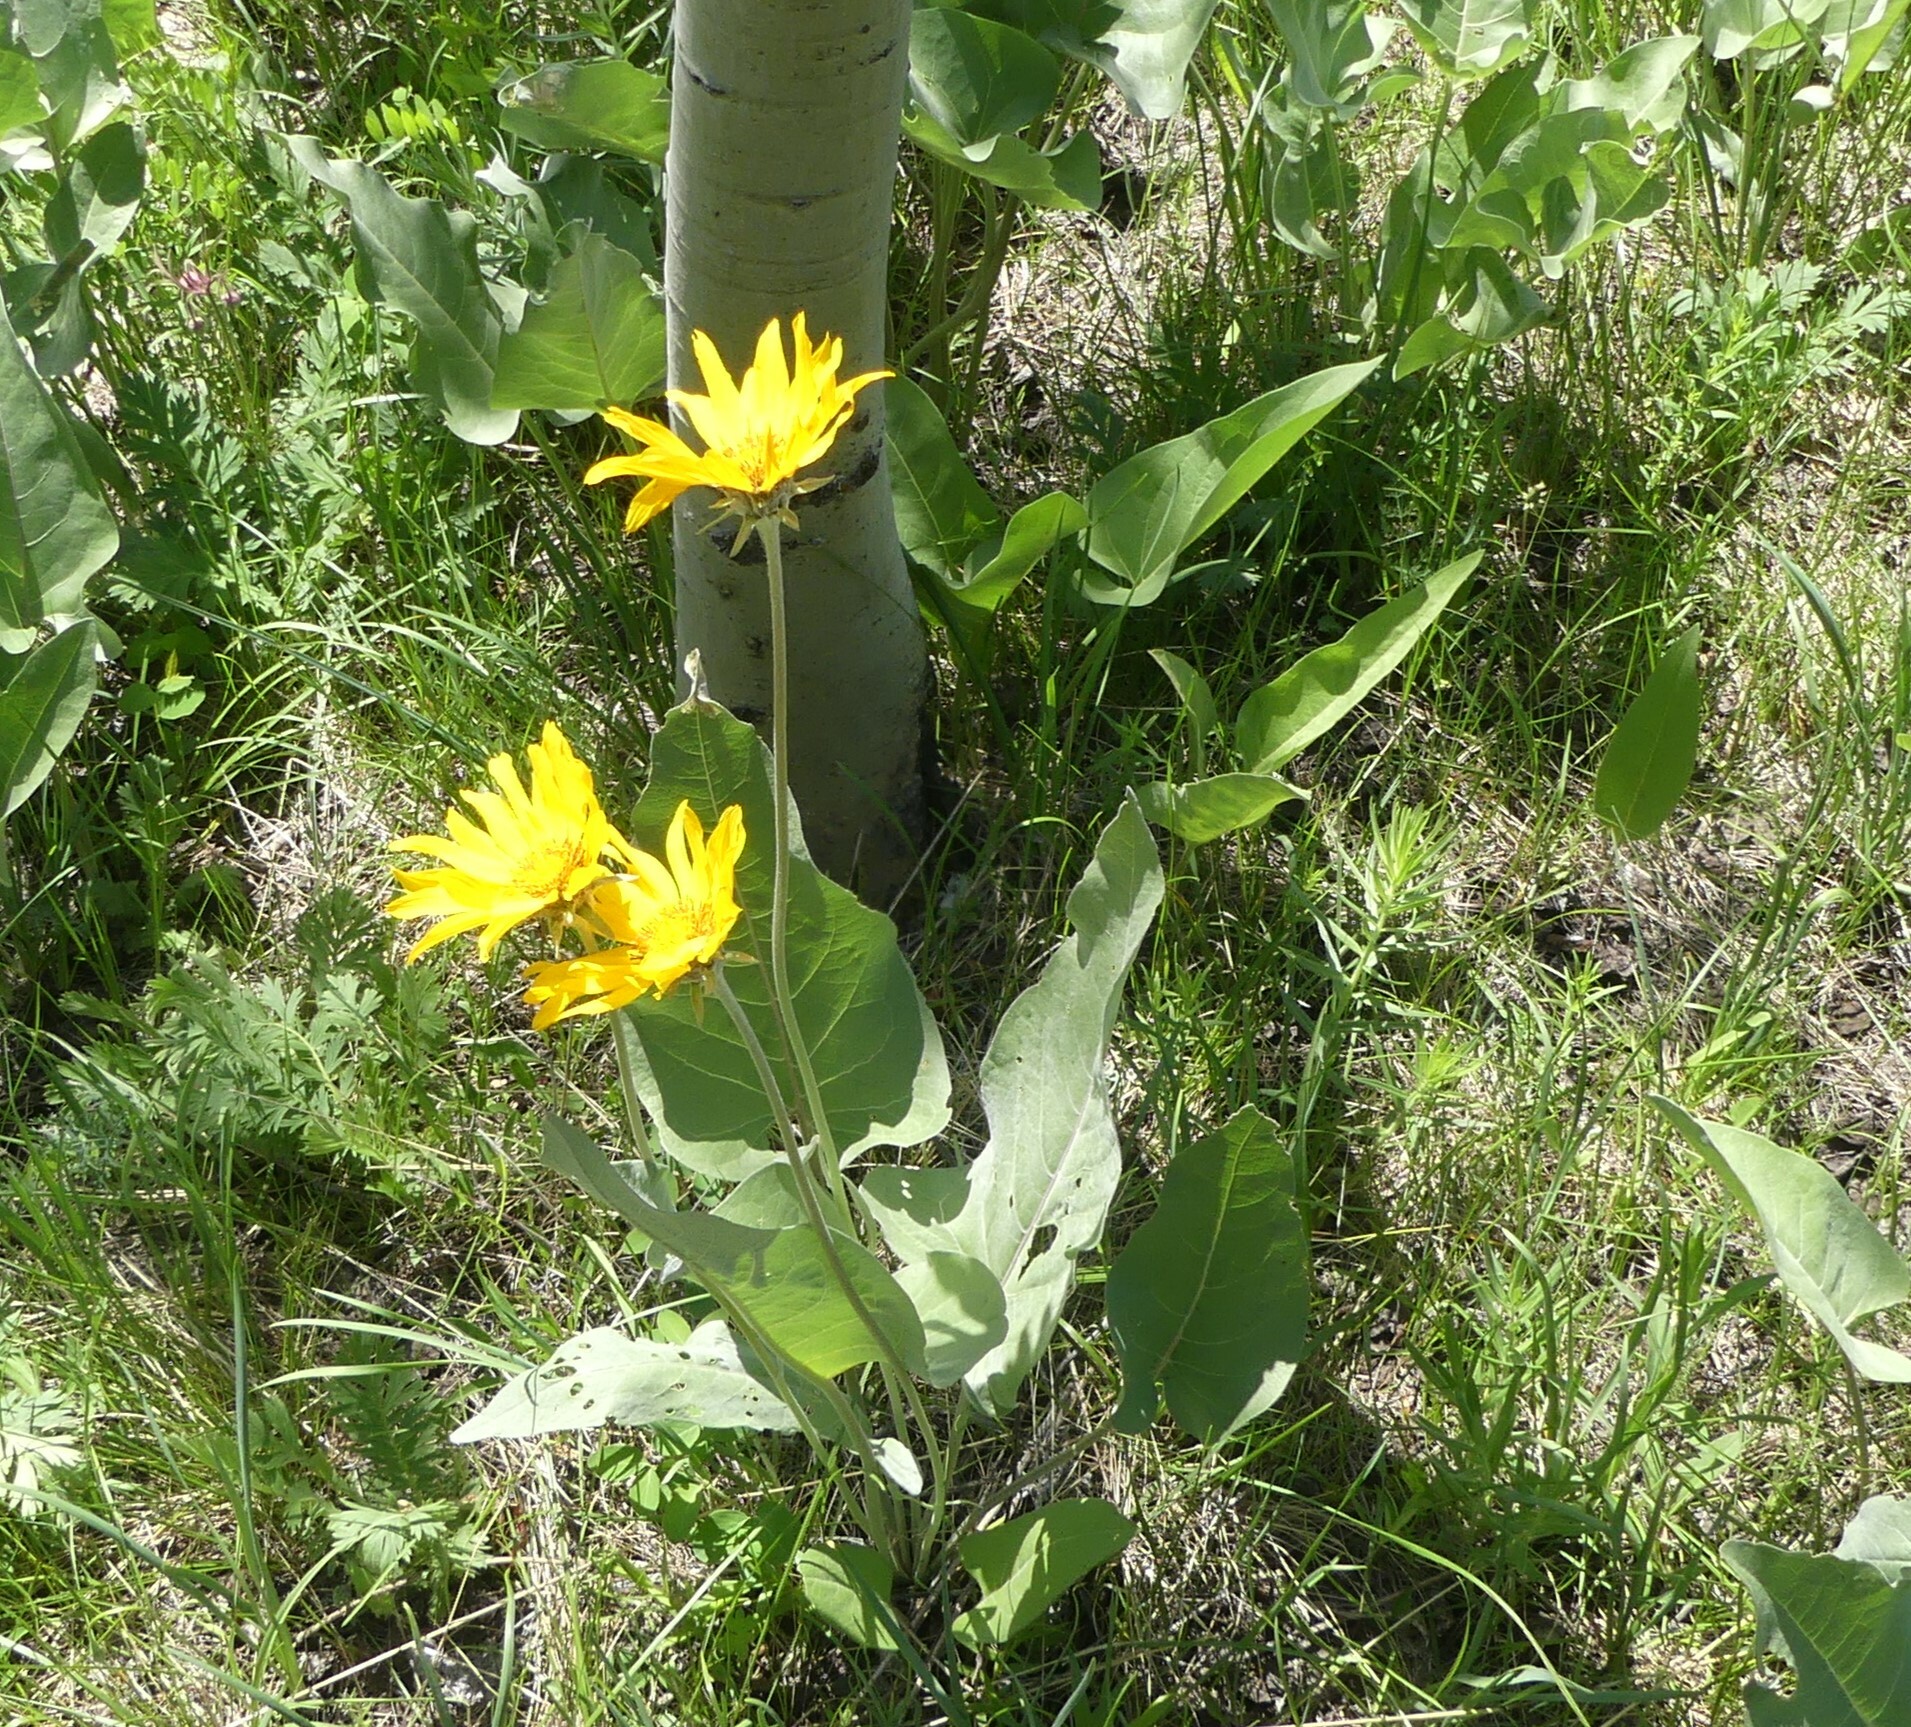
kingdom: Plantae
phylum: Tracheophyta
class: Magnoliopsida
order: Asterales
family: Asteraceae
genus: Wyethia
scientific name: Wyethia sagittata
